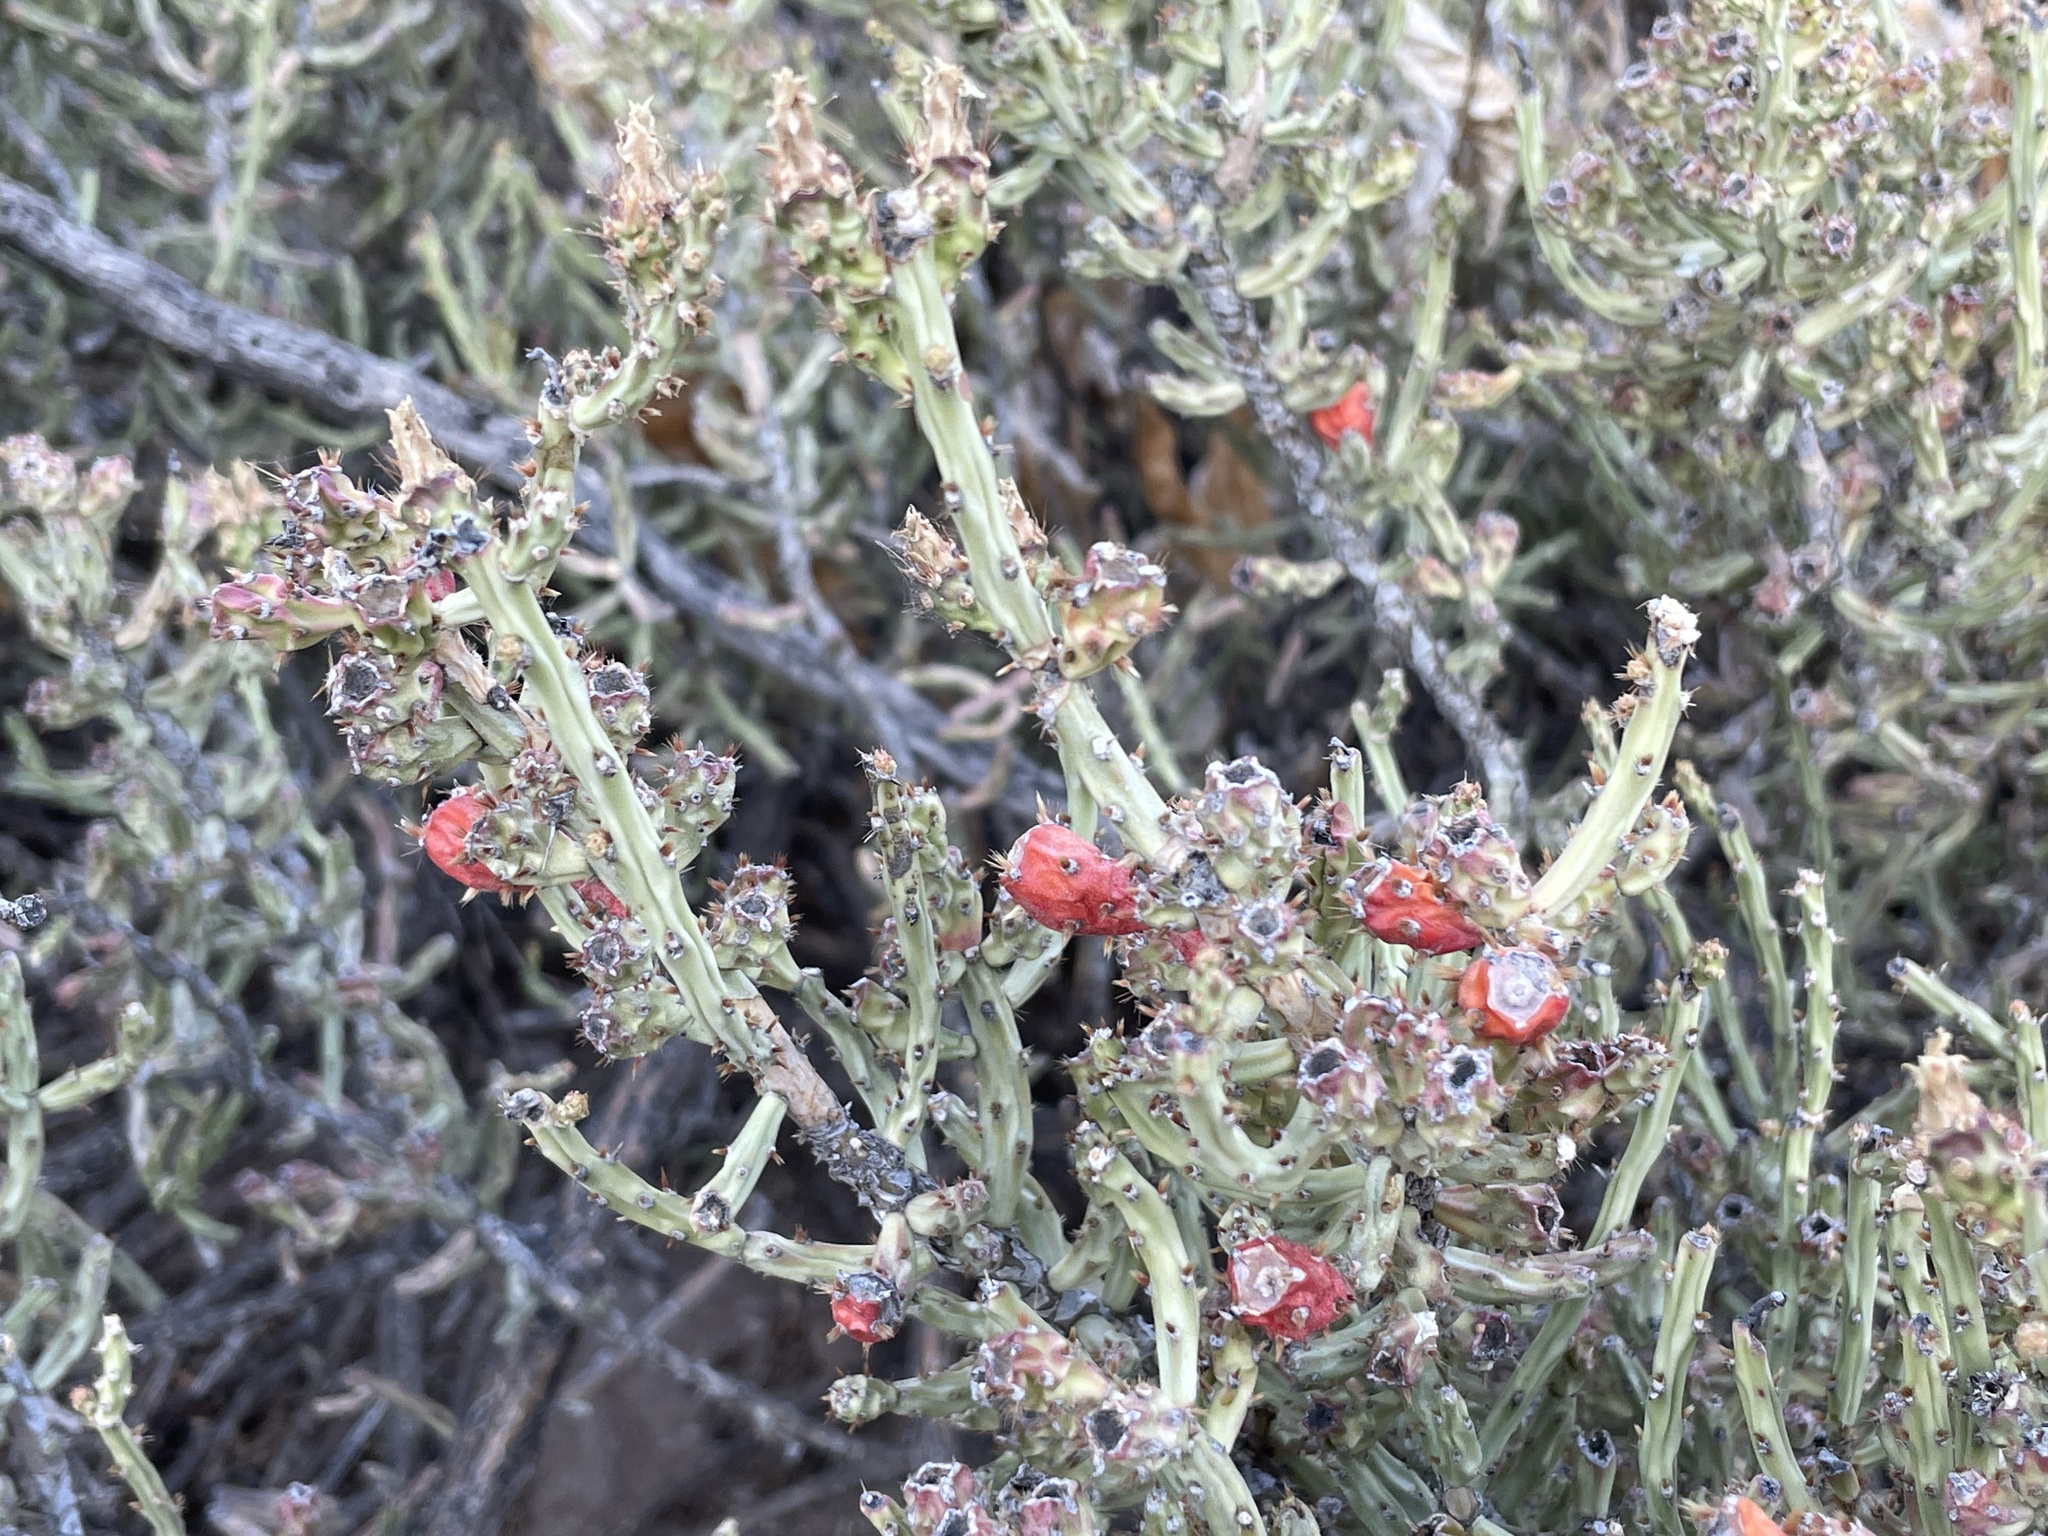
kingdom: Plantae
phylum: Tracheophyta
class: Magnoliopsida
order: Caryophyllales
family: Cactaceae
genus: Cylindropuntia
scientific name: Cylindropuntia leptocaulis
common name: Christmas cactus
